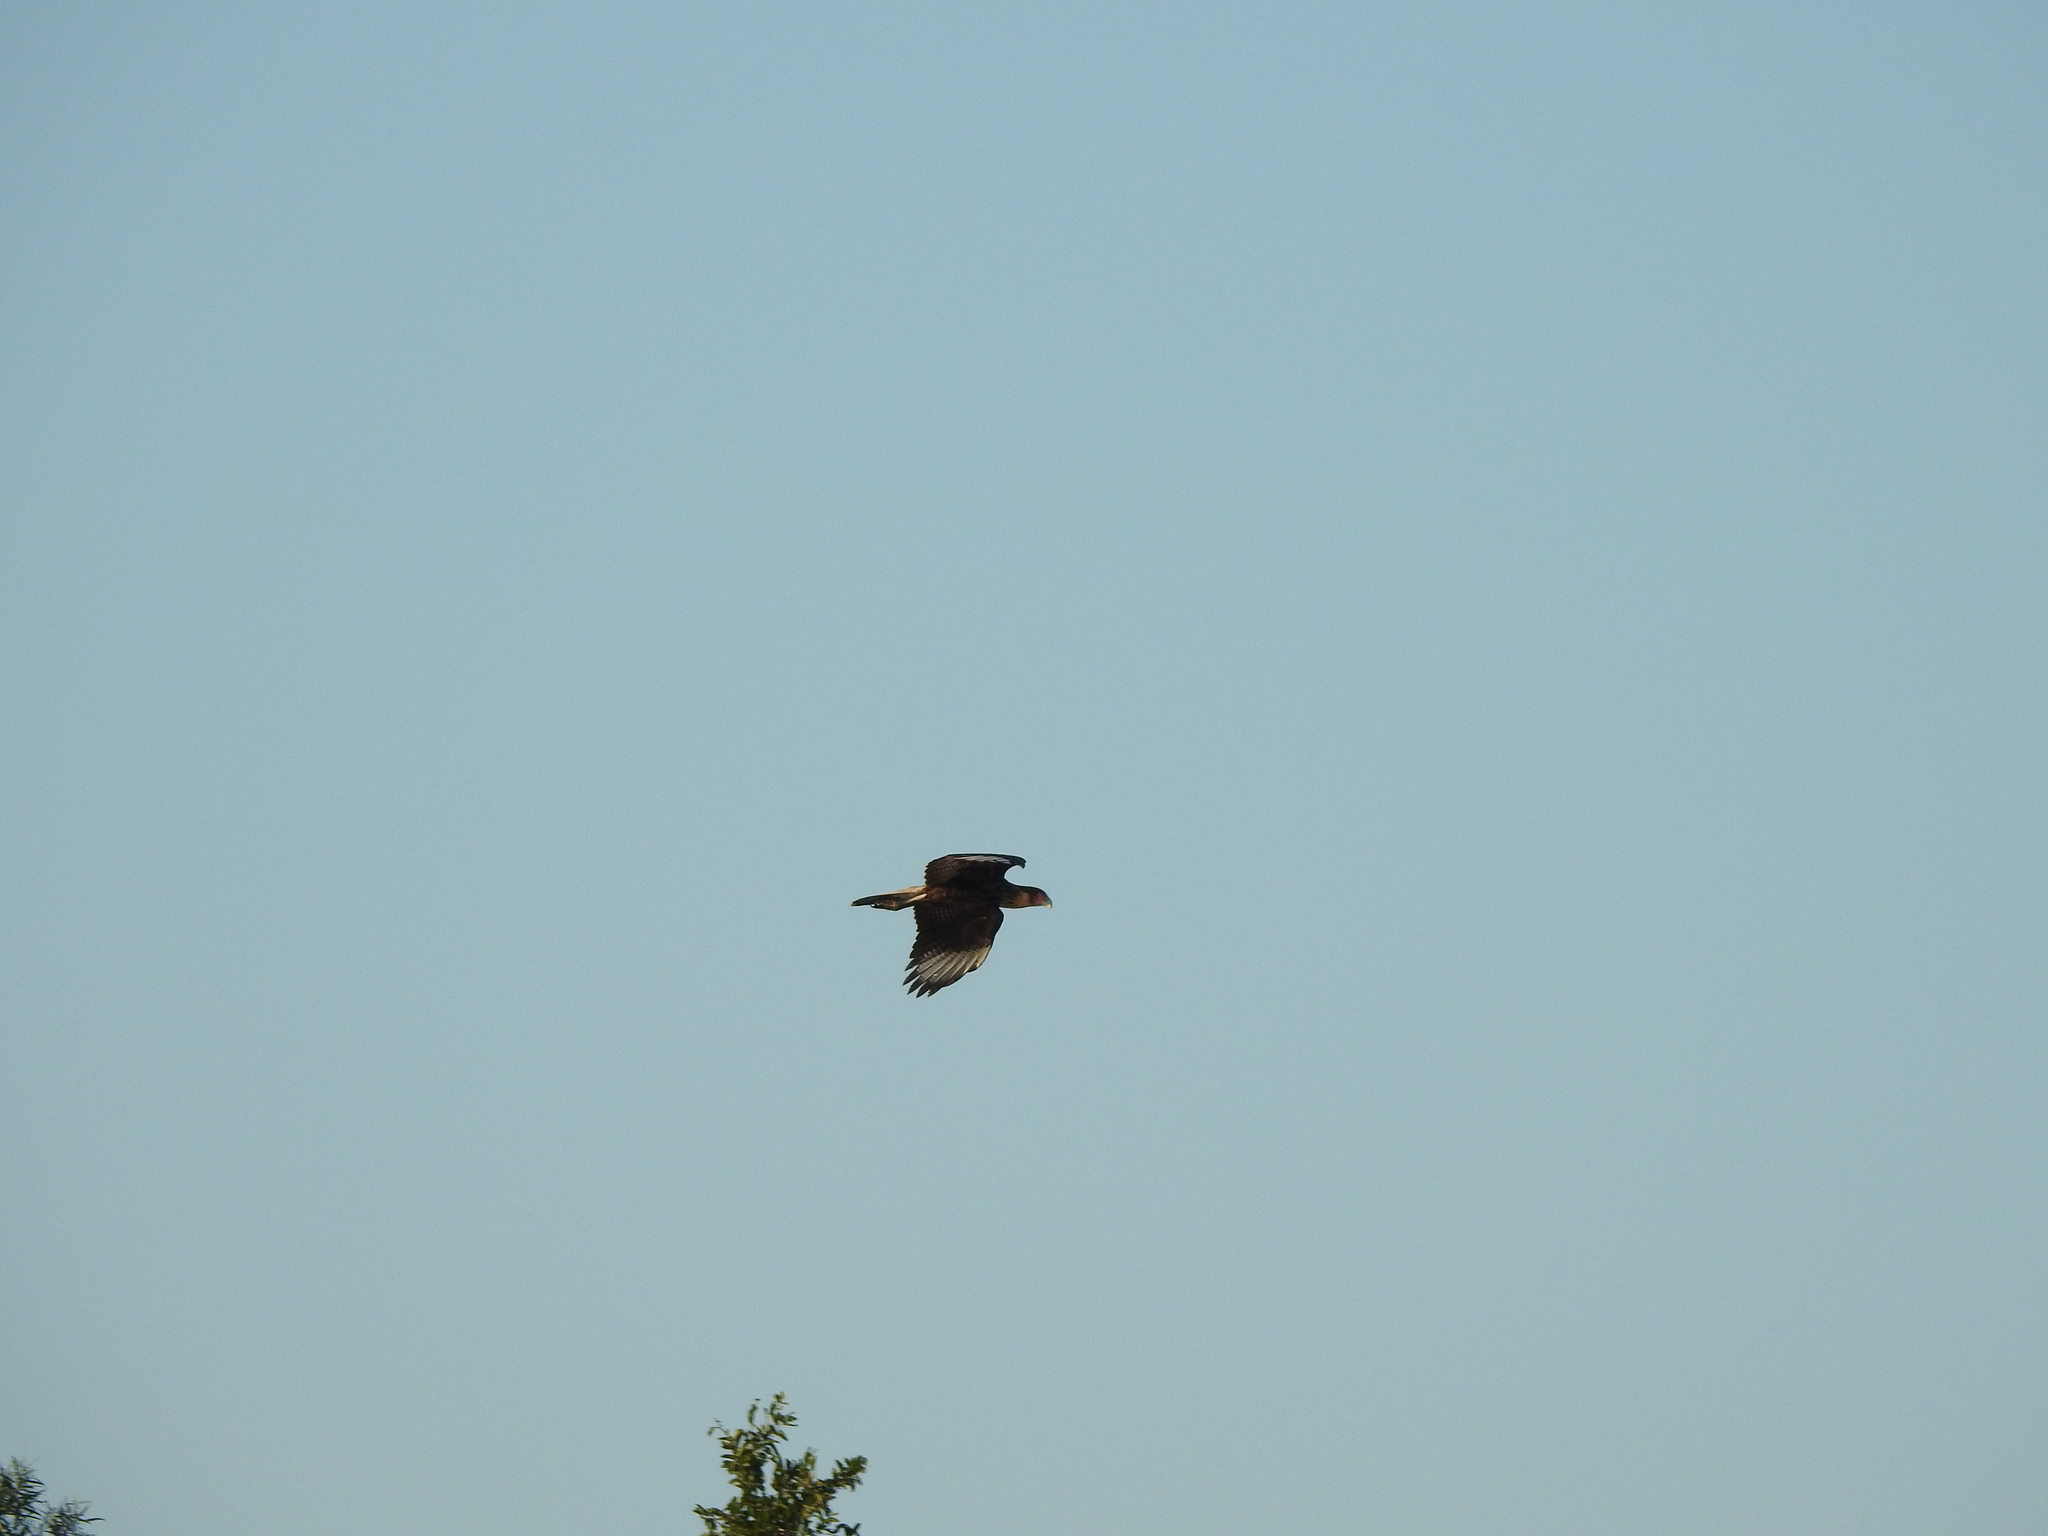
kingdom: Animalia
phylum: Chordata
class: Aves
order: Falconiformes
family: Falconidae
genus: Caracara
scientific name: Caracara plancus
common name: Southern caracara
